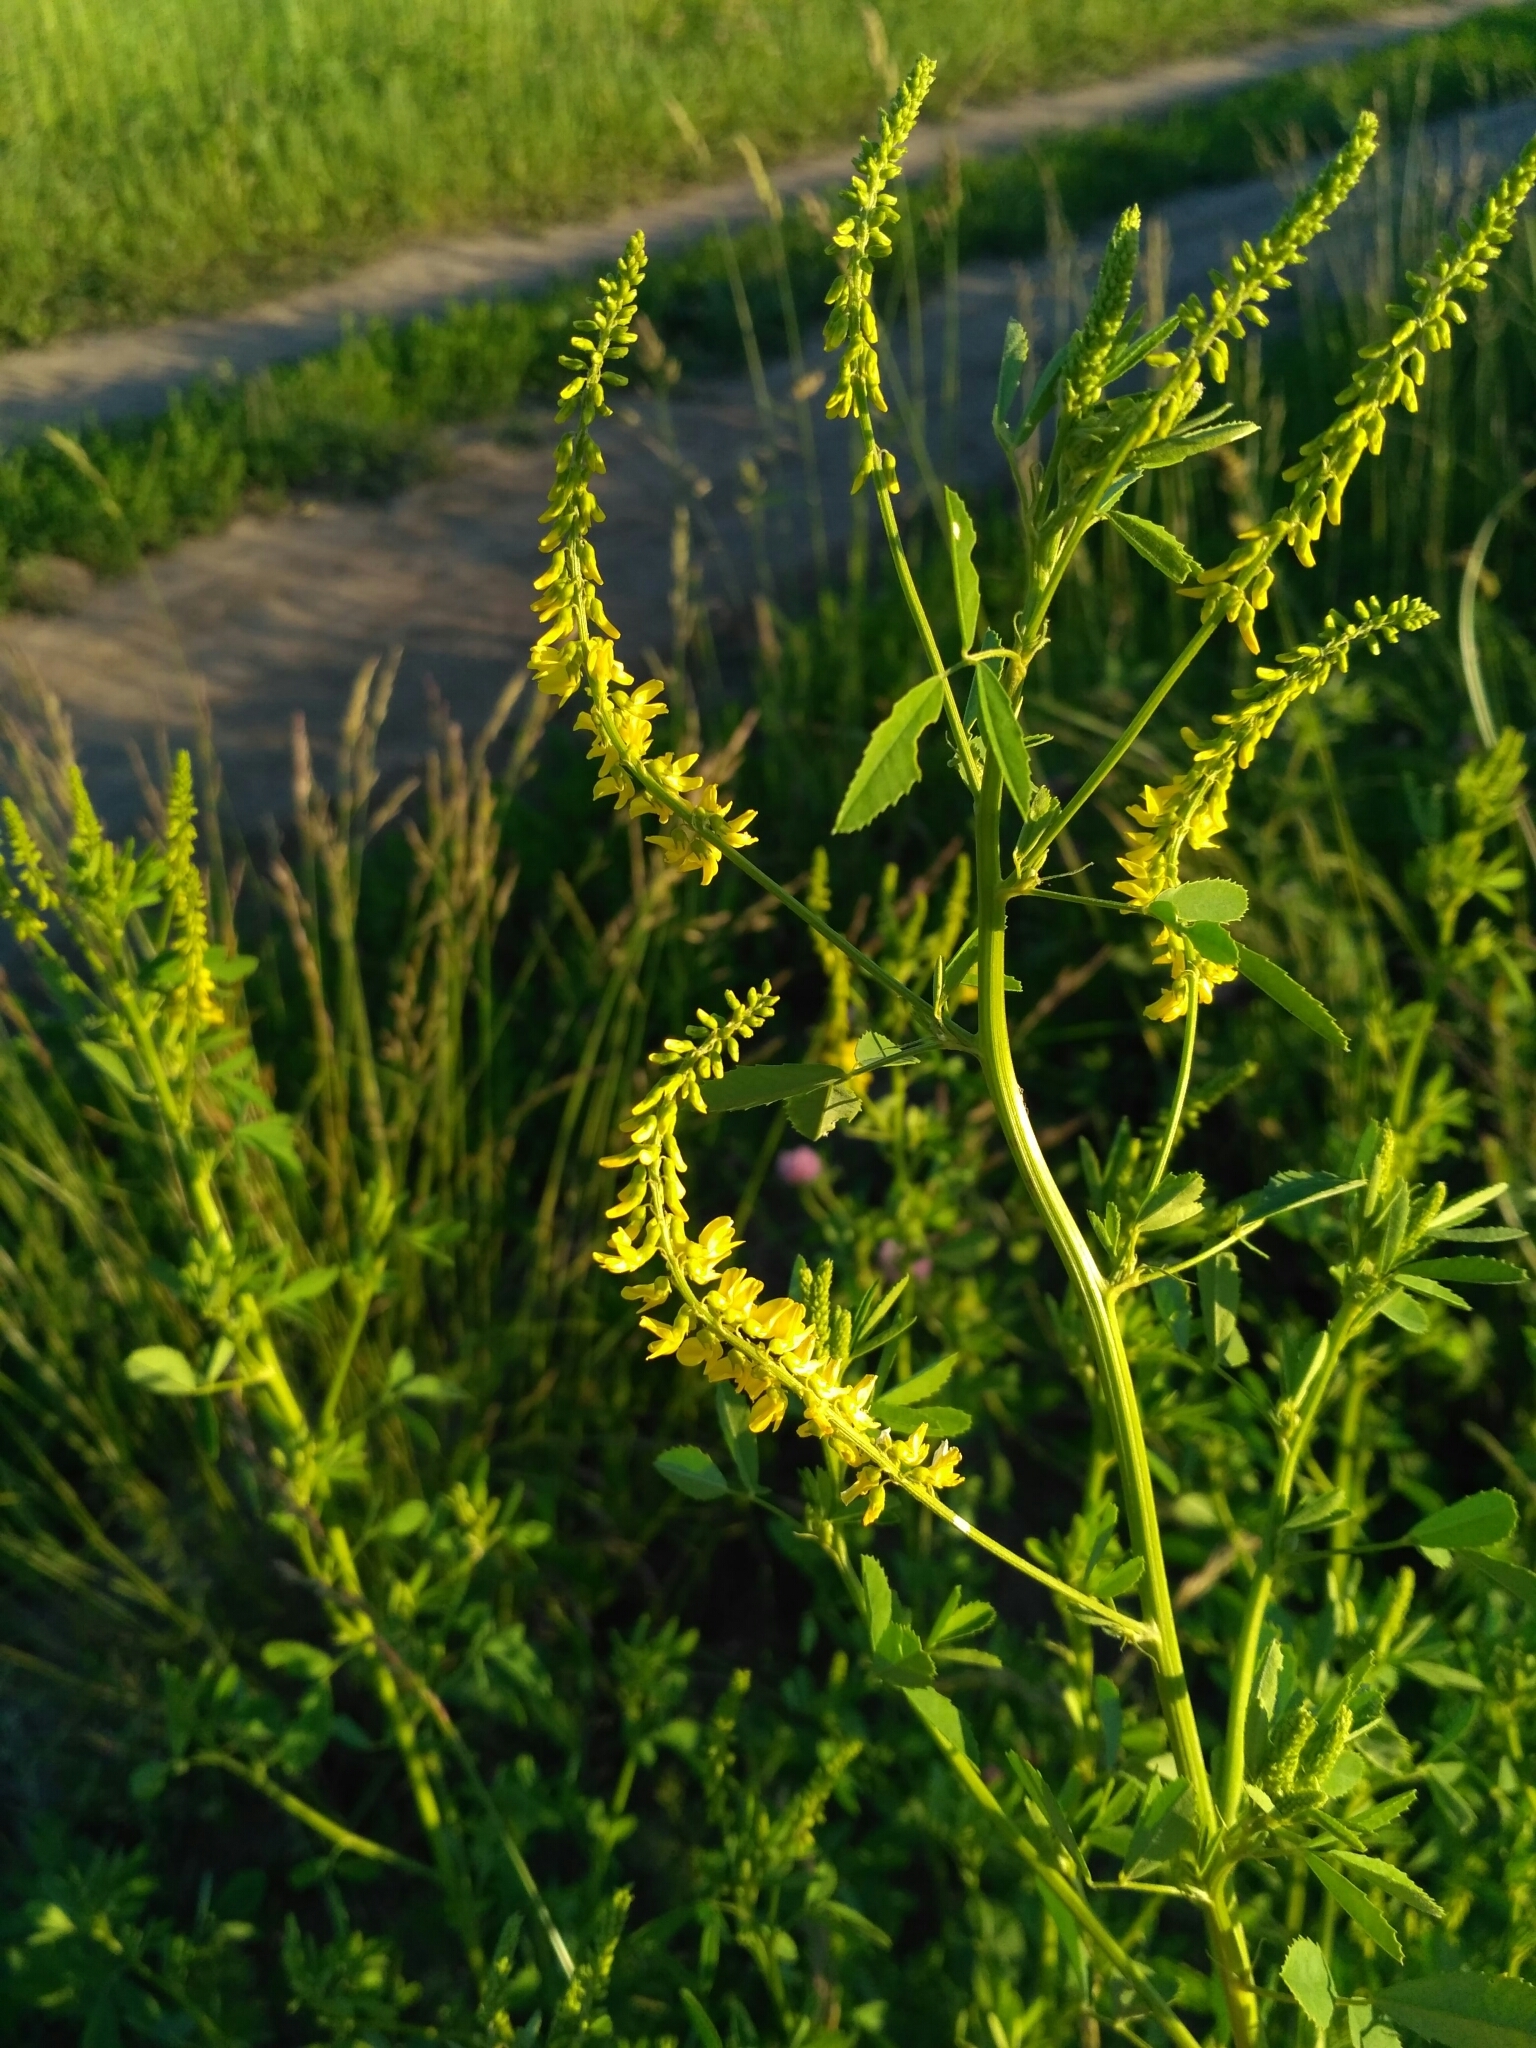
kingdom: Plantae
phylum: Tracheophyta
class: Magnoliopsida
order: Fabales
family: Fabaceae
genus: Melilotus
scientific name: Melilotus officinalis
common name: Sweetclover
